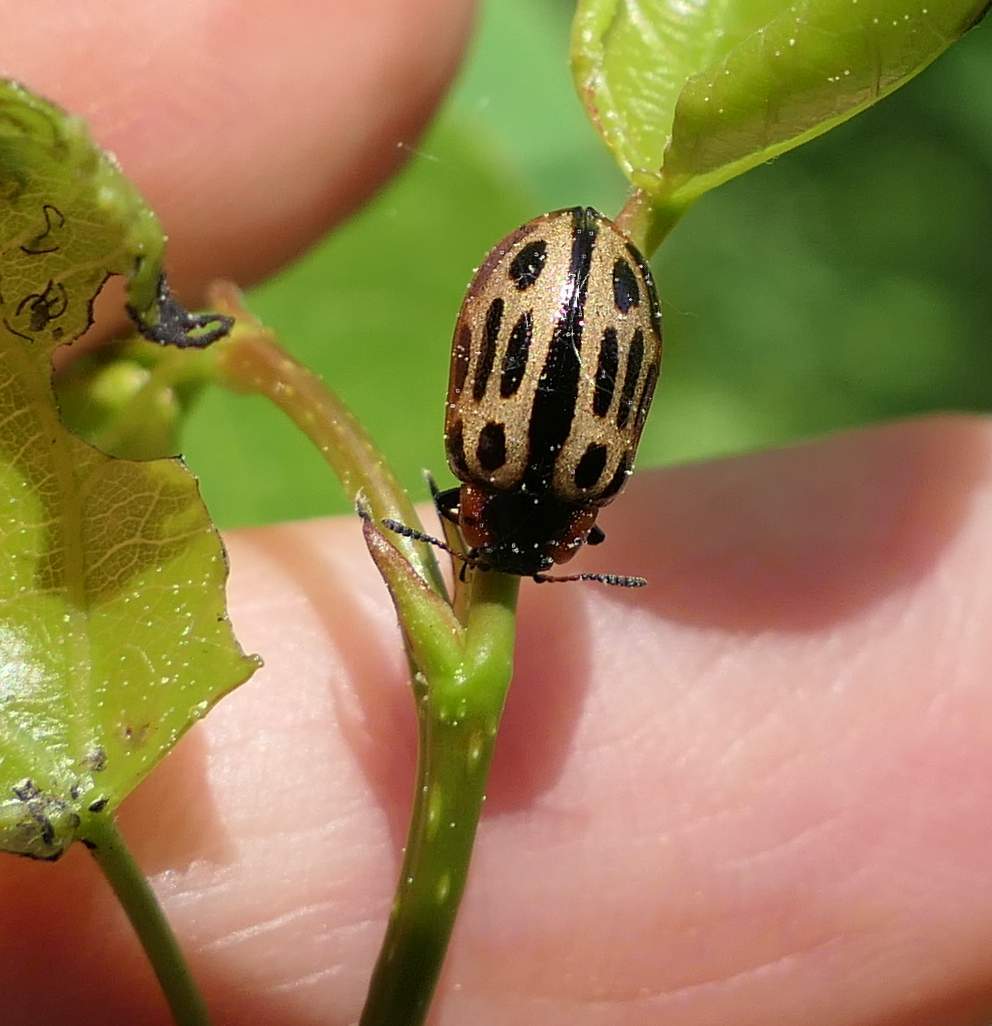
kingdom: Animalia
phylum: Arthropoda
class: Insecta
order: Coleoptera
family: Chrysomelidae
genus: Aethiopocassis
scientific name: Aethiopocassis scripta
